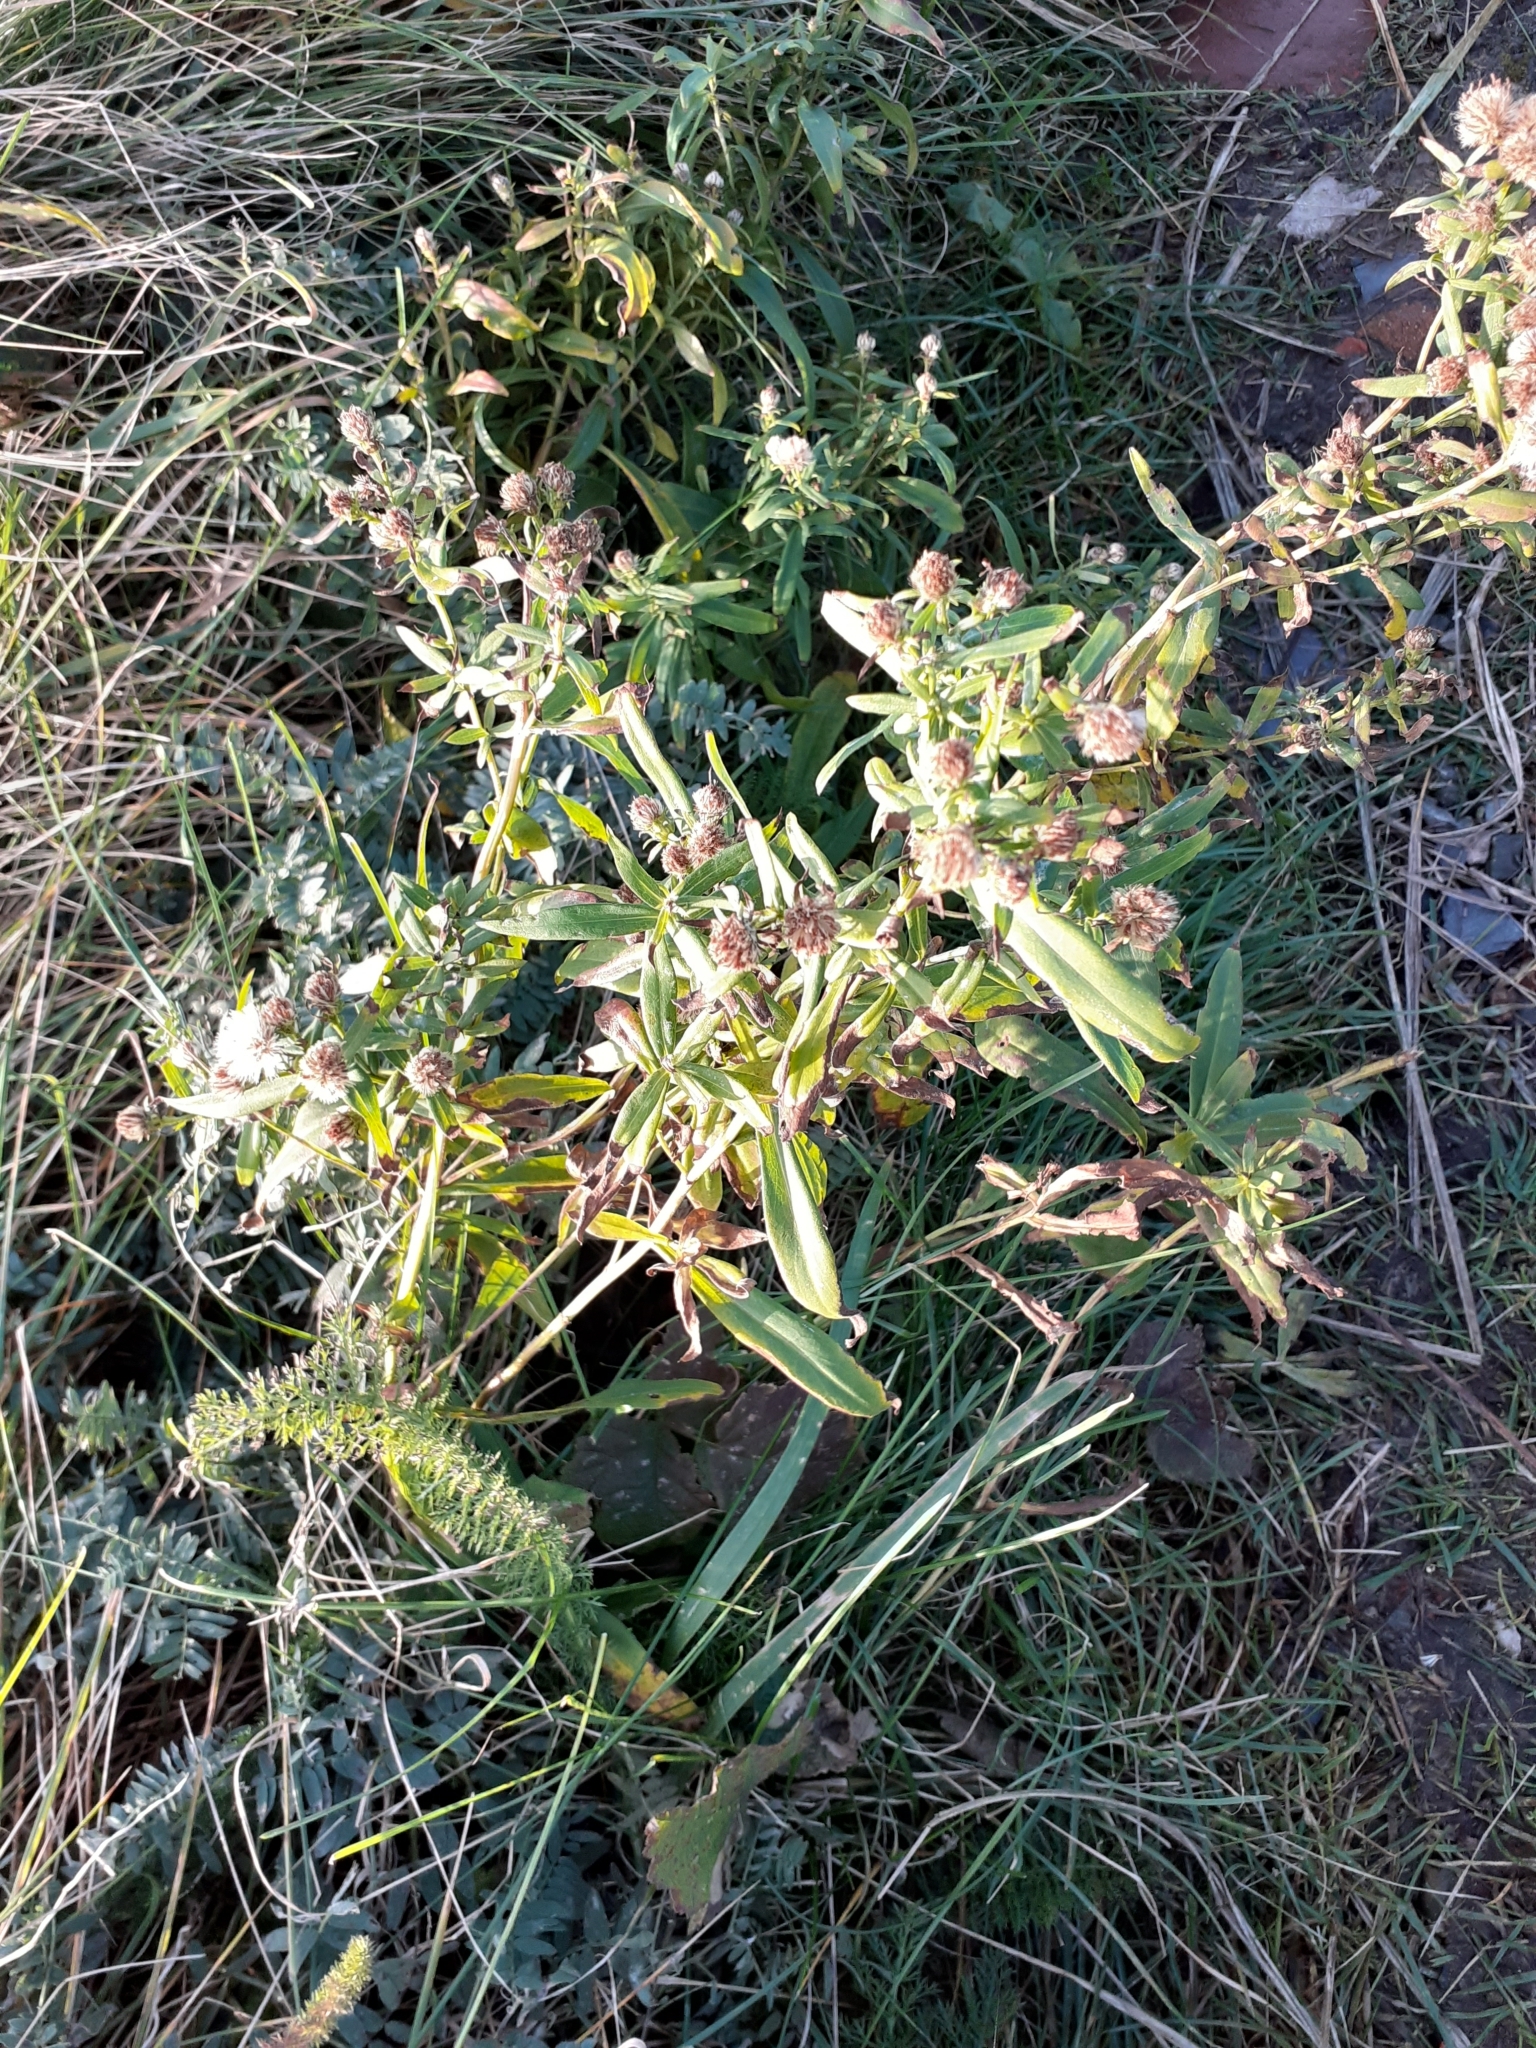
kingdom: Plantae
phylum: Tracheophyta
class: Magnoliopsida
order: Asterales
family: Asteraceae
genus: Helminthotheca
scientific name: Helminthotheca echioides
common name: Ox-tongue
